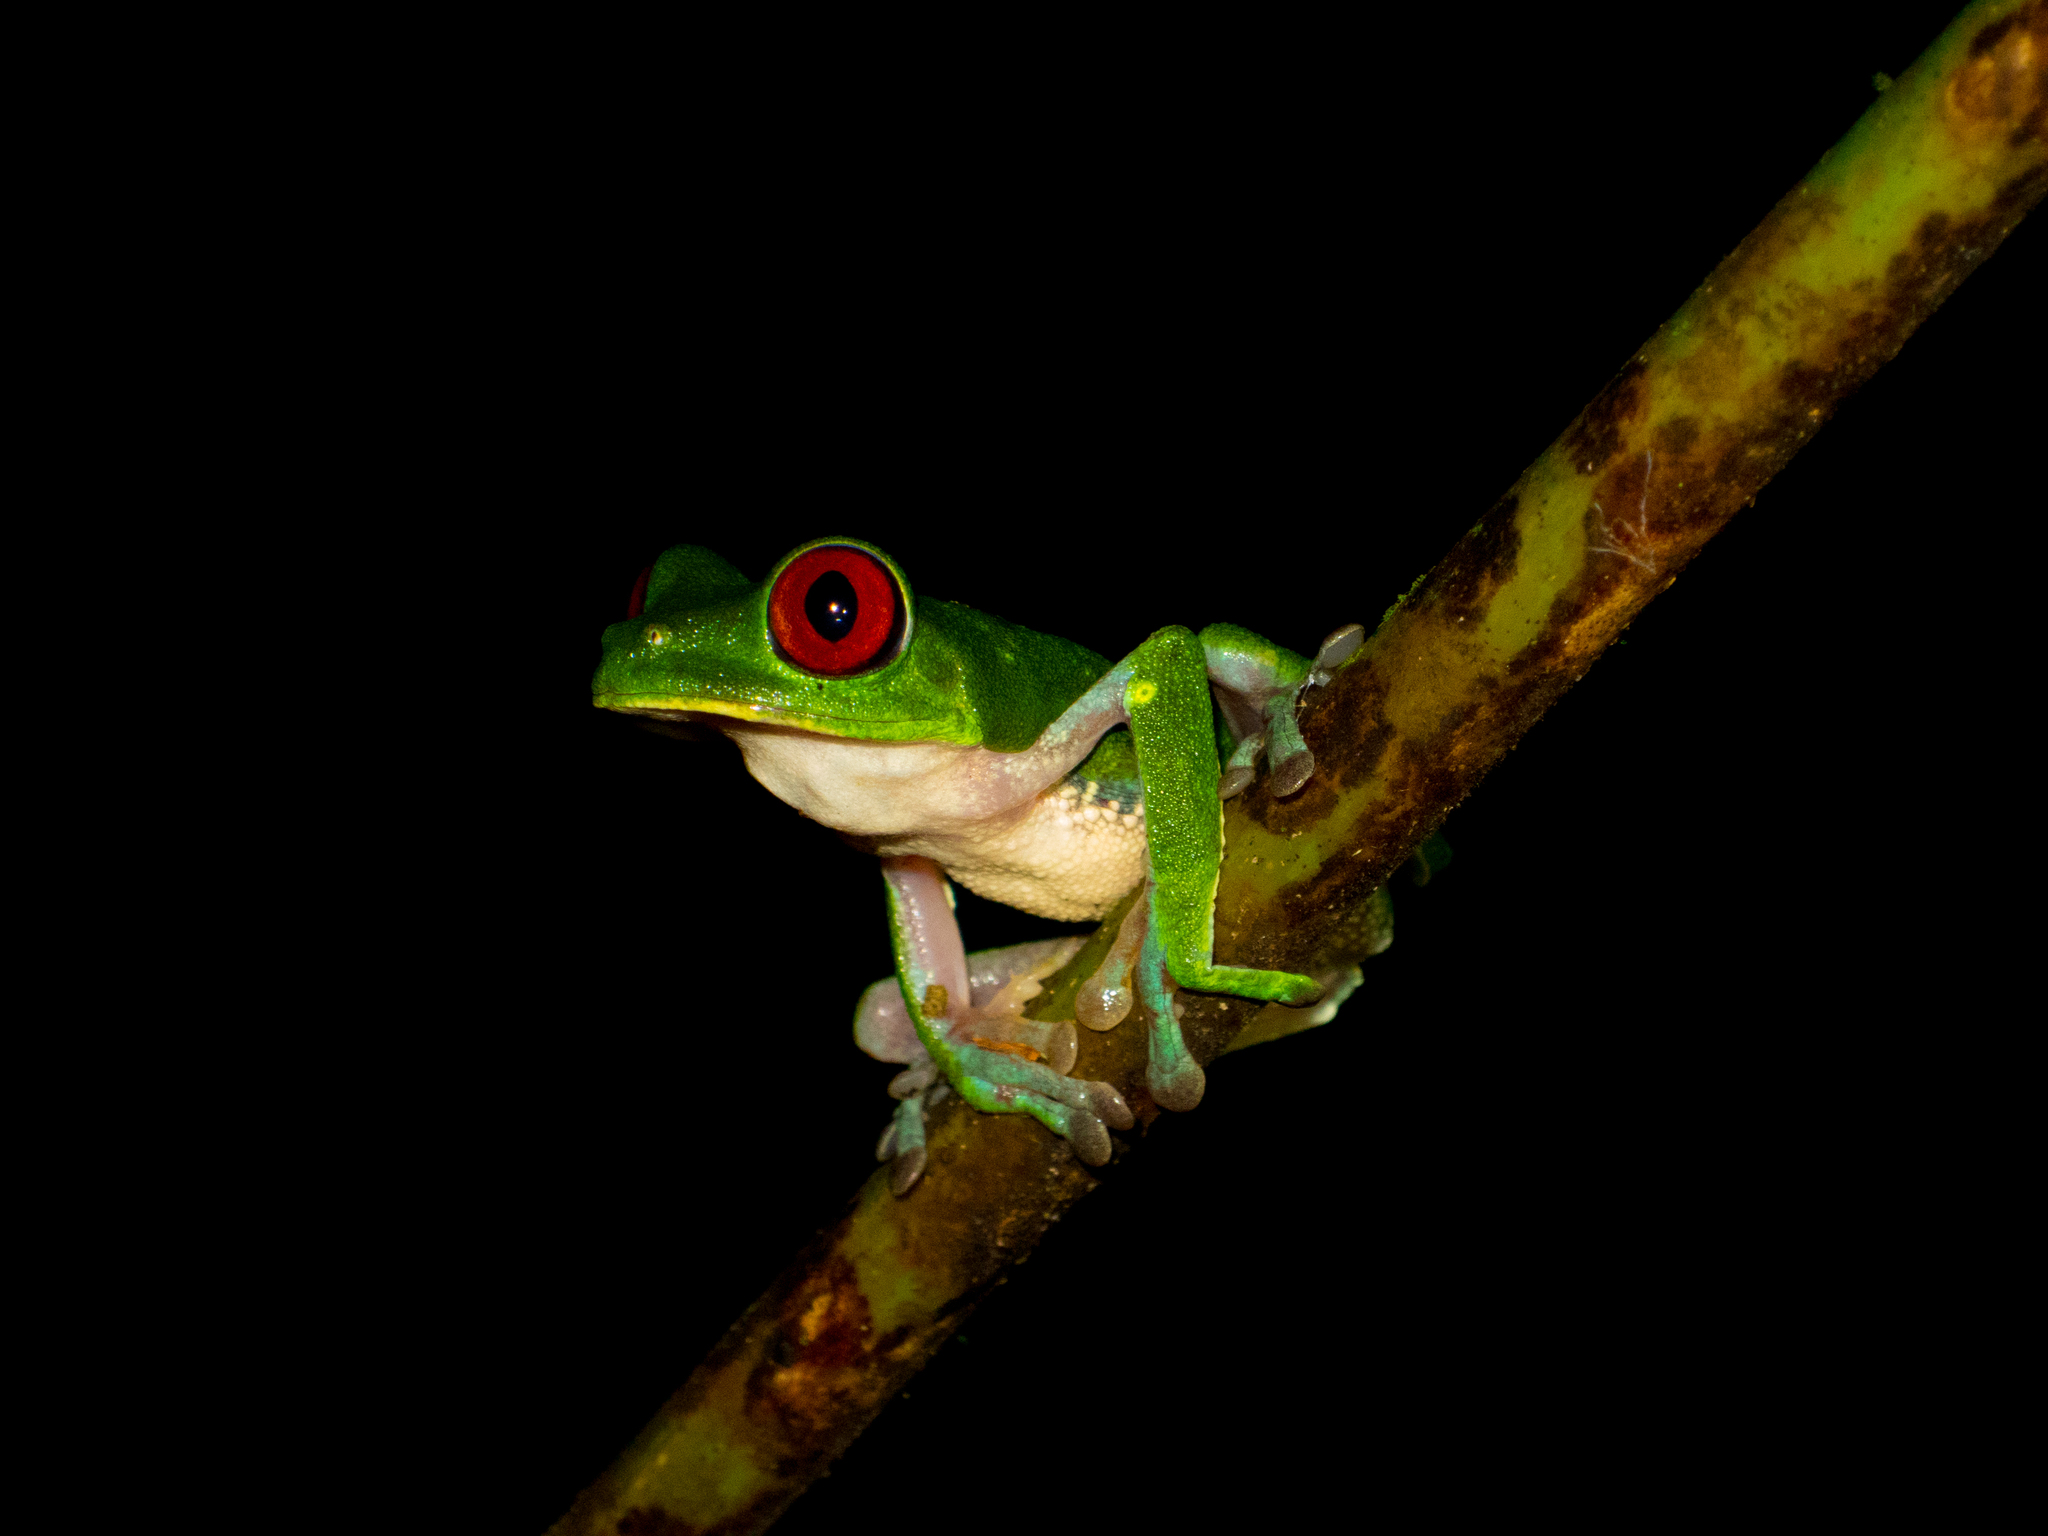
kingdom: Animalia
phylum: Chordata
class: Amphibia
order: Anura
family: Phyllomedusidae
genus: Agalychnis
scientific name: Agalychnis callidryas
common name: Red-eyed treefrog
